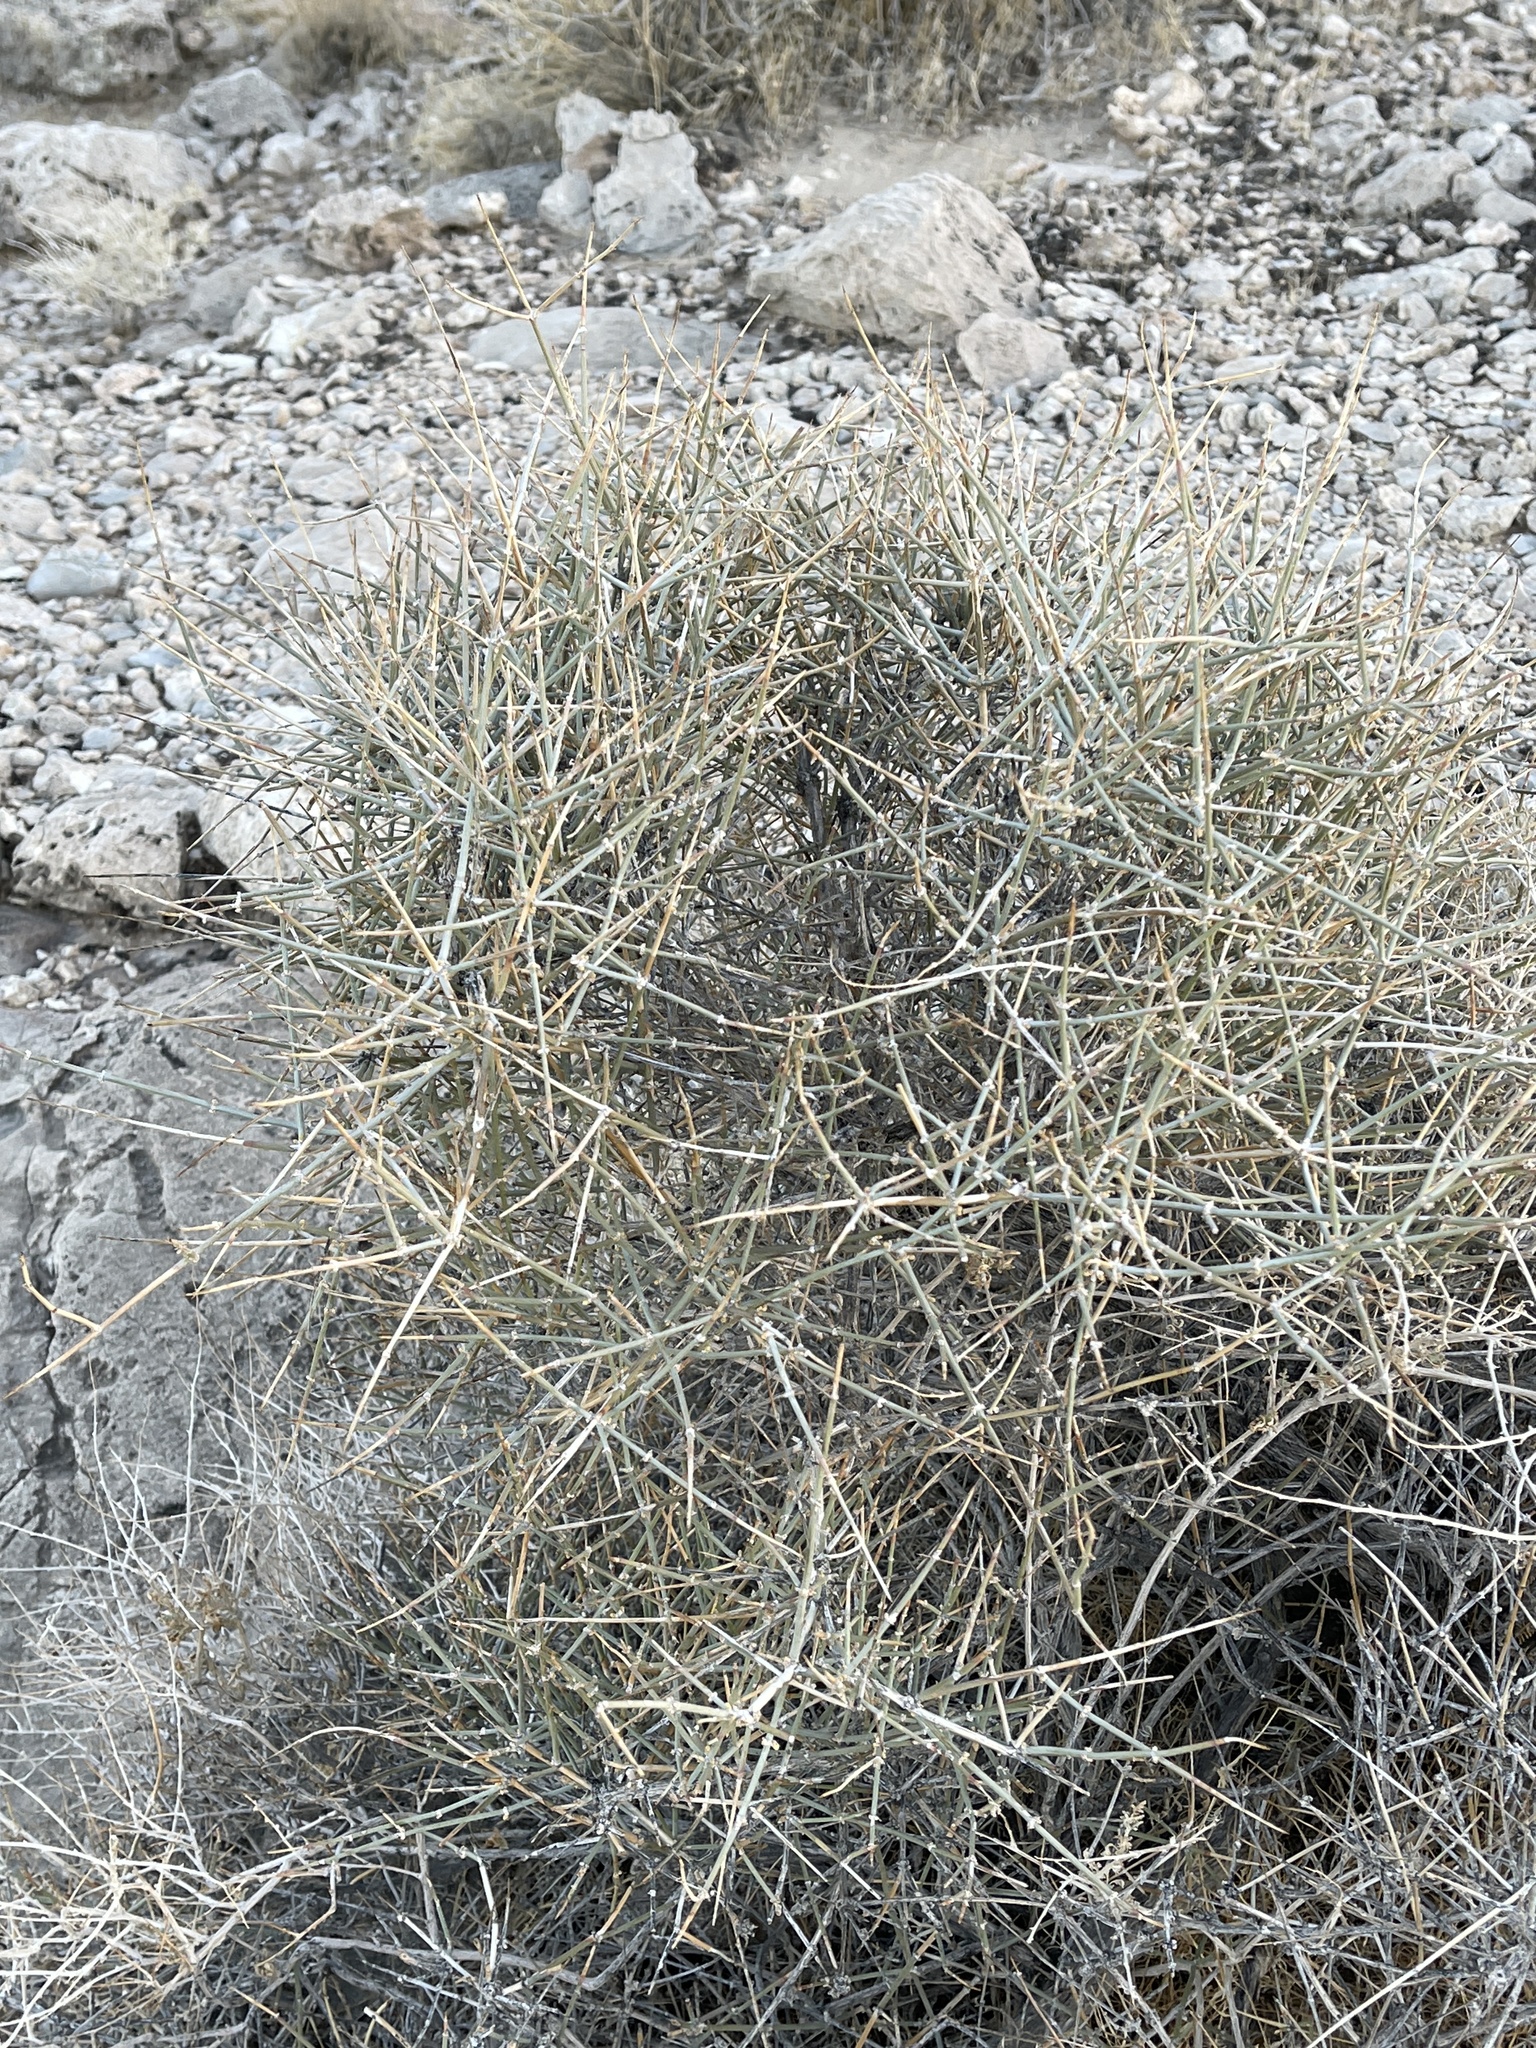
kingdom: Plantae
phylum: Tracheophyta
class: Gnetopsida
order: Ephedrales
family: Ephedraceae
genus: Ephedra
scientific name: Ephedra nevadensis
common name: Gray ephedra
